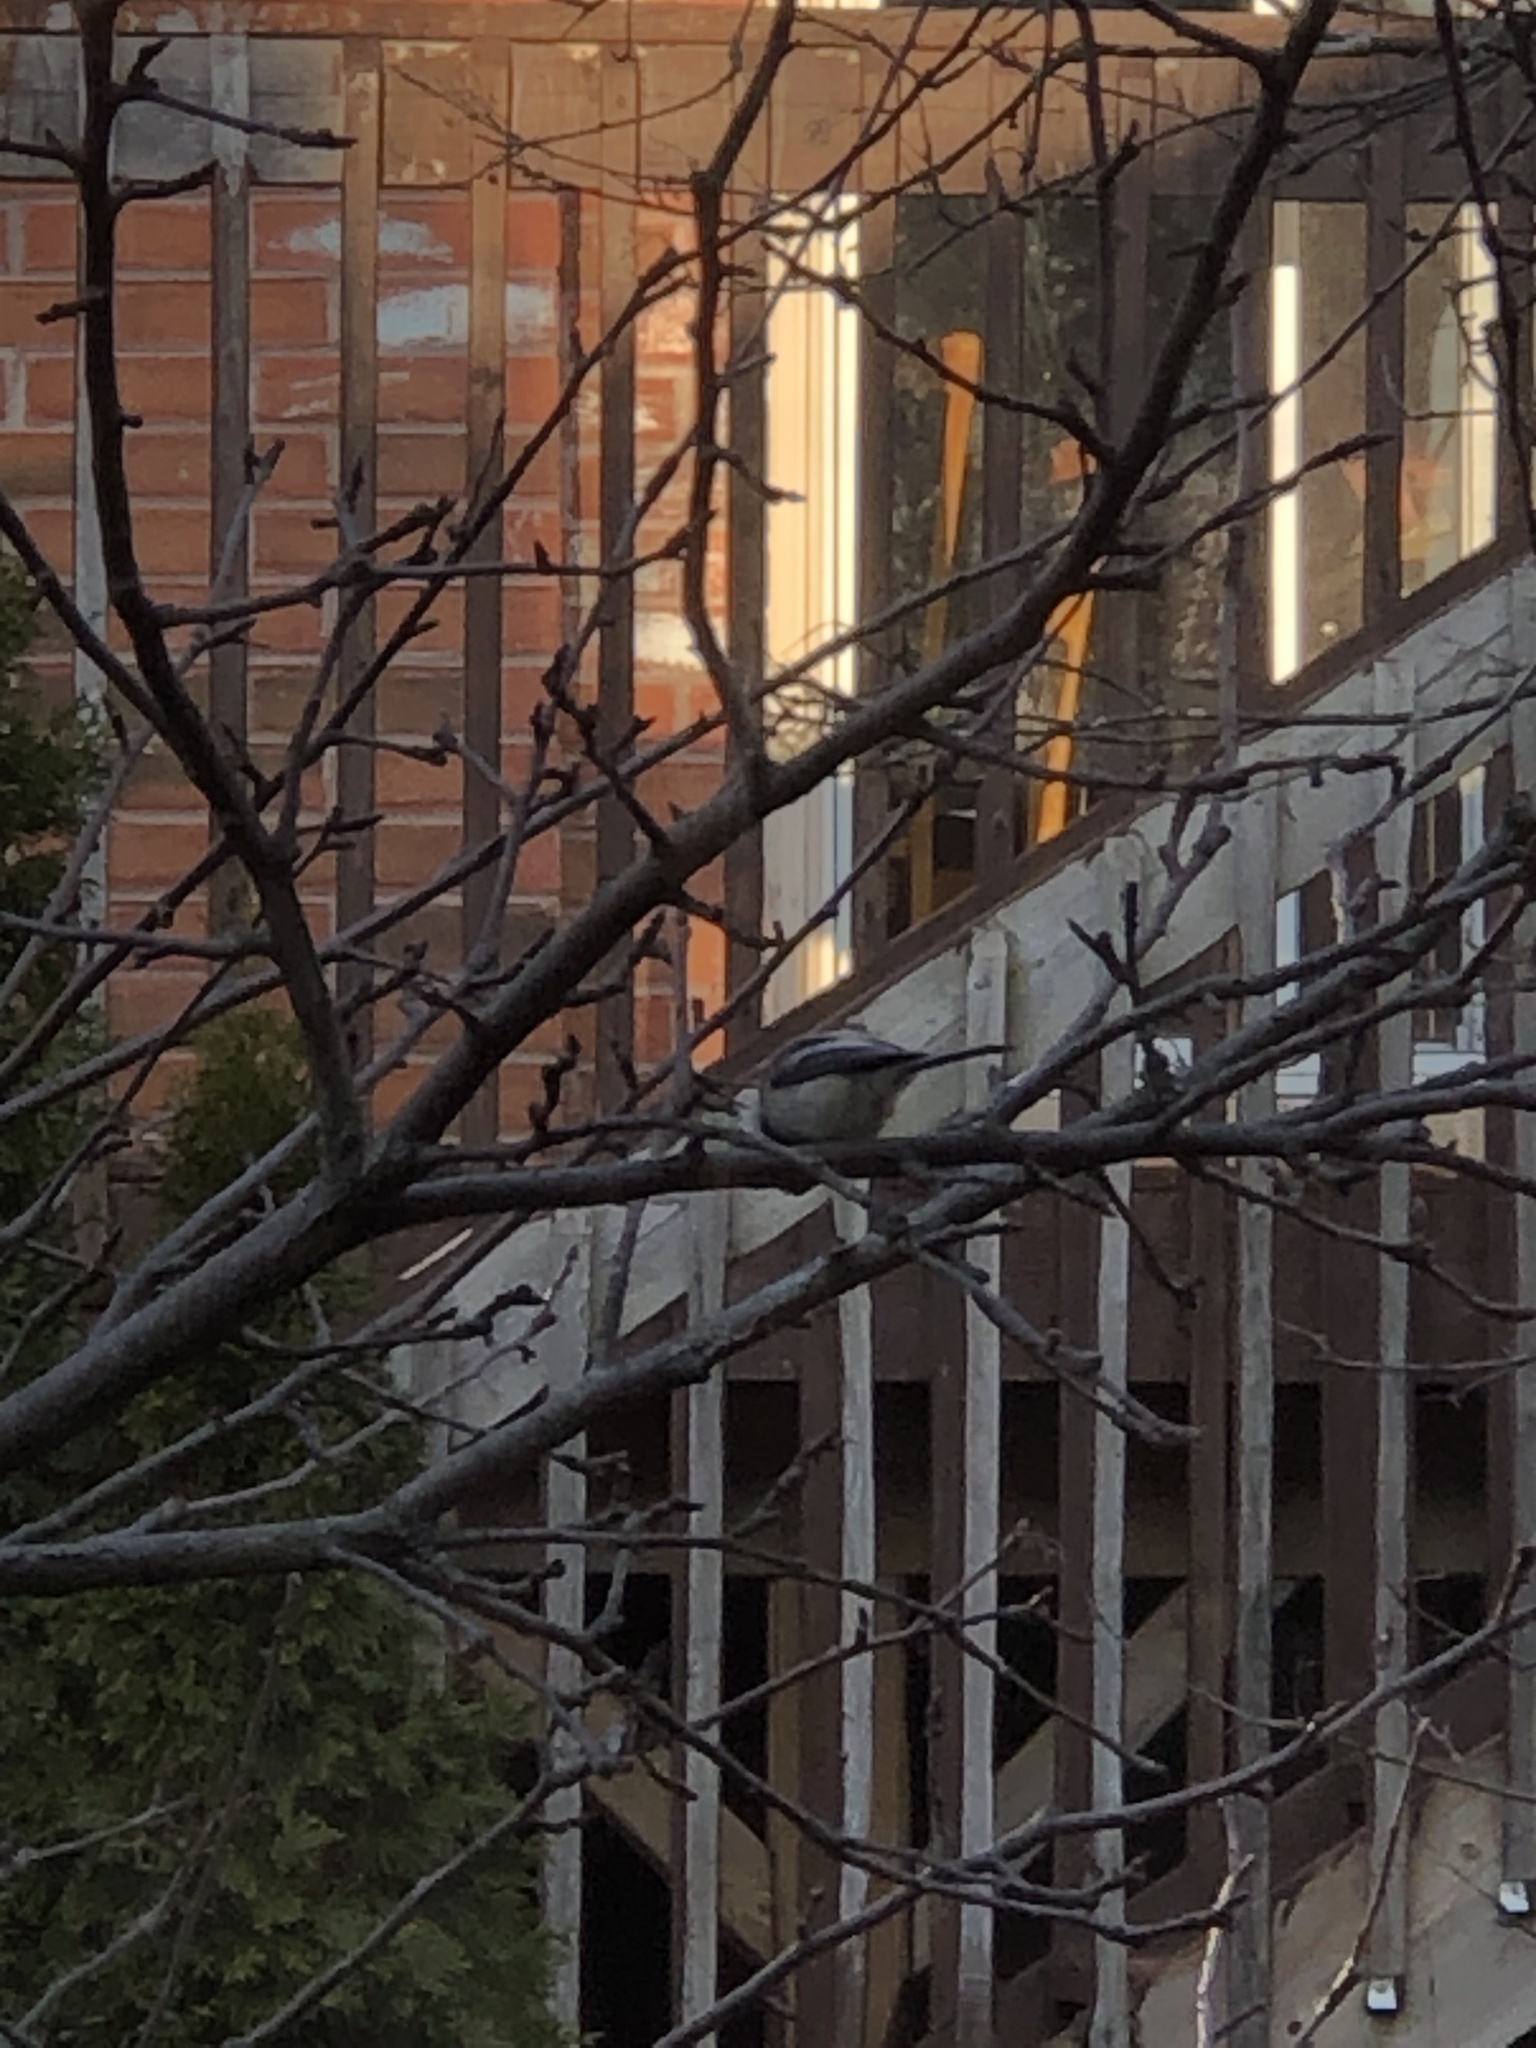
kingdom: Animalia
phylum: Chordata
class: Aves
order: Passeriformes
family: Paridae
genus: Poecile
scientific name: Poecile atricapillus
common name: Black-capped chickadee
